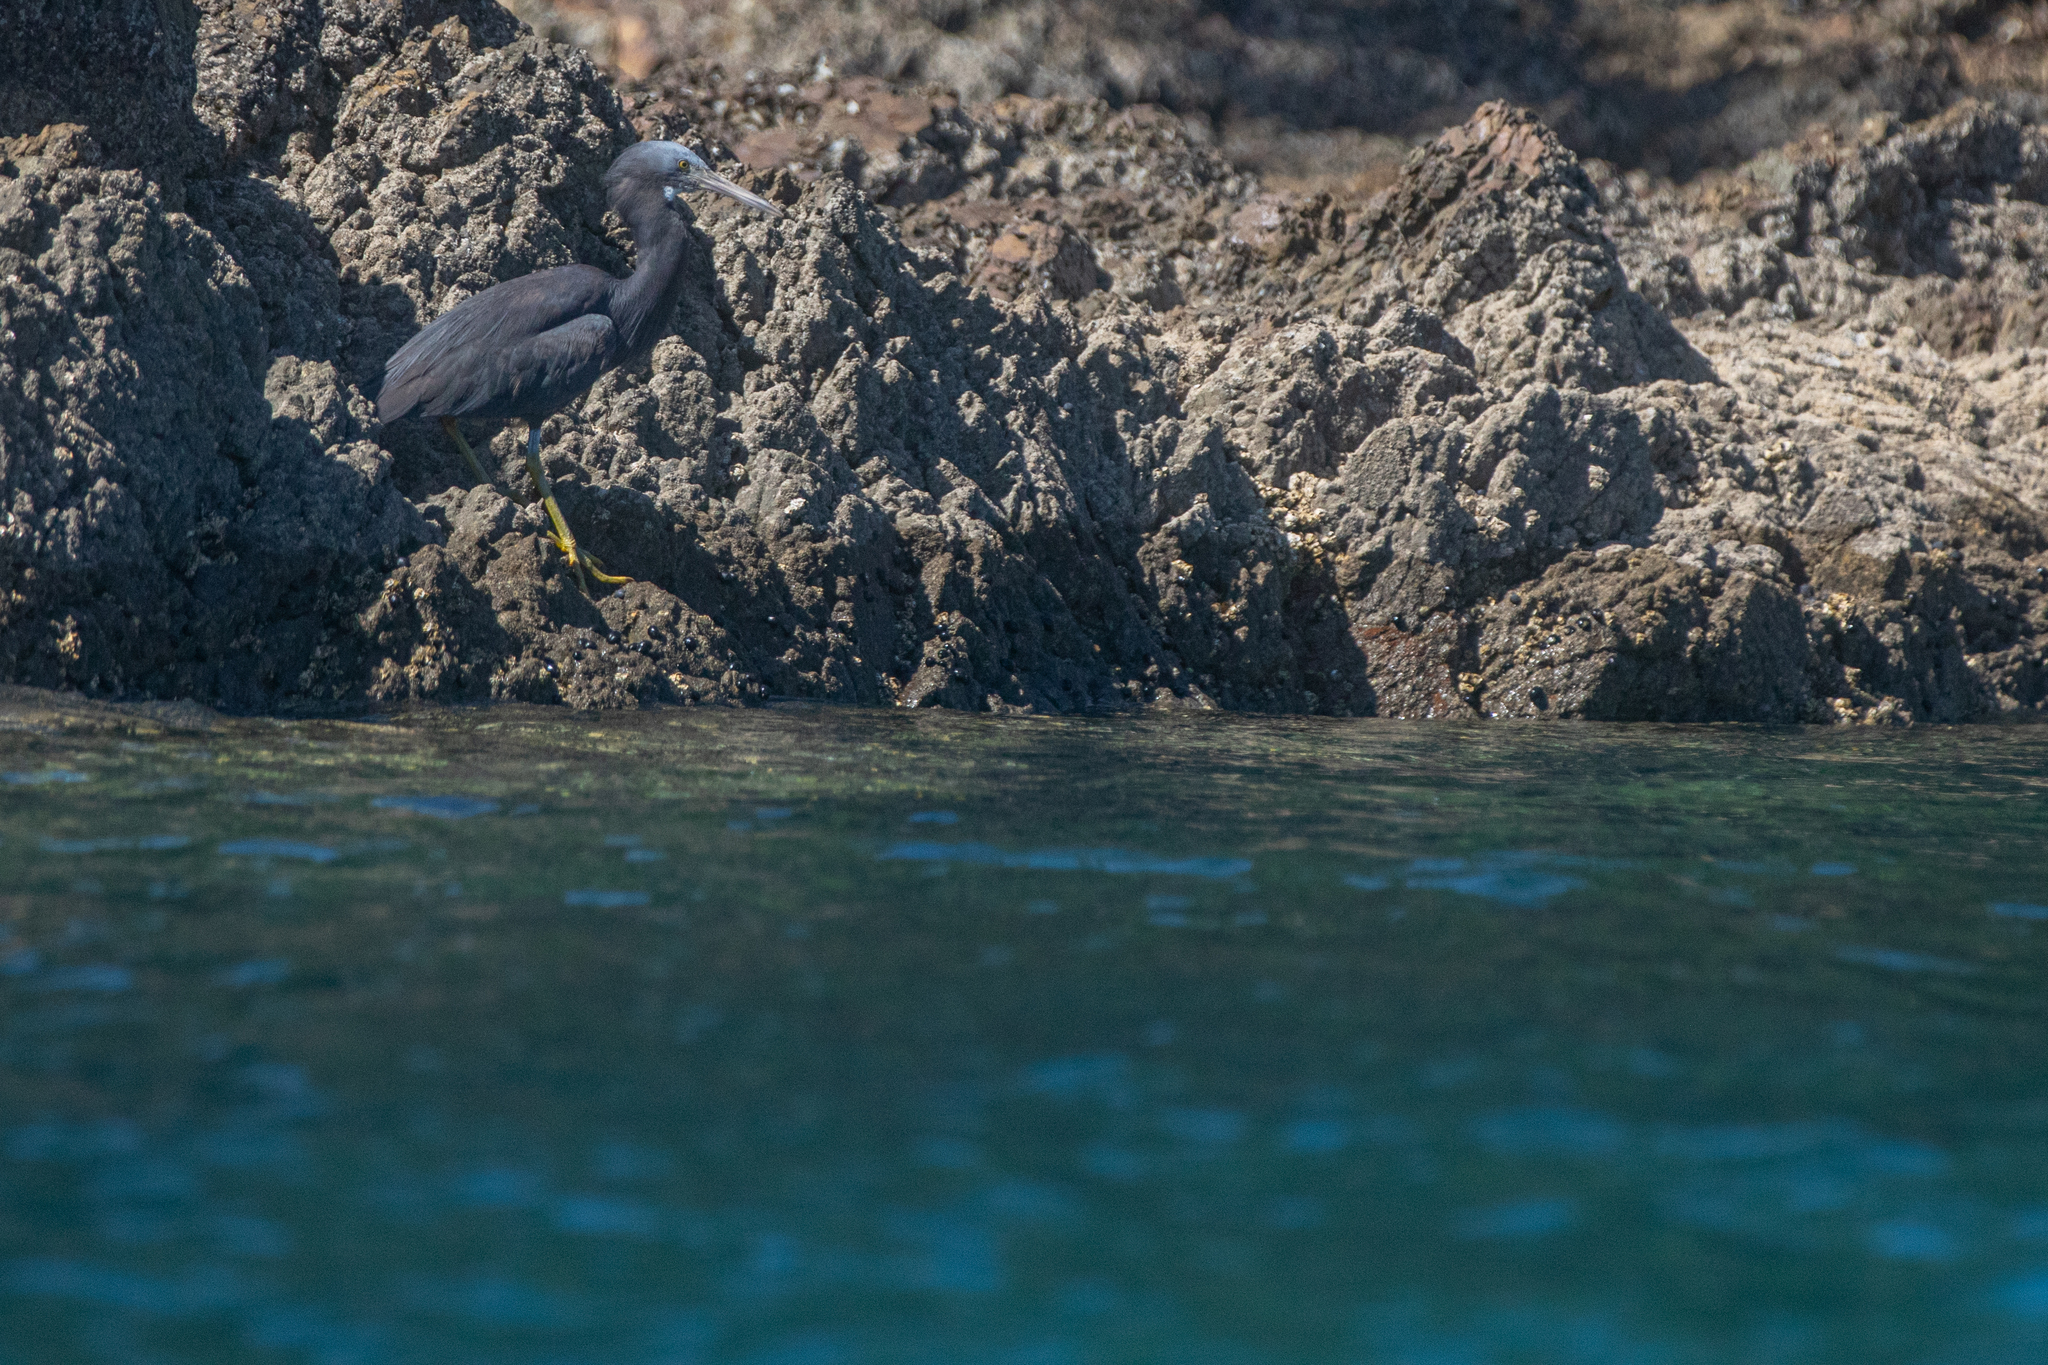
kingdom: Animalia
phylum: Chordata
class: Aves
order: Pelecaniformes
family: Ardeidae
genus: Egretta
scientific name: Egretta sacra
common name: Pacific reef heron
